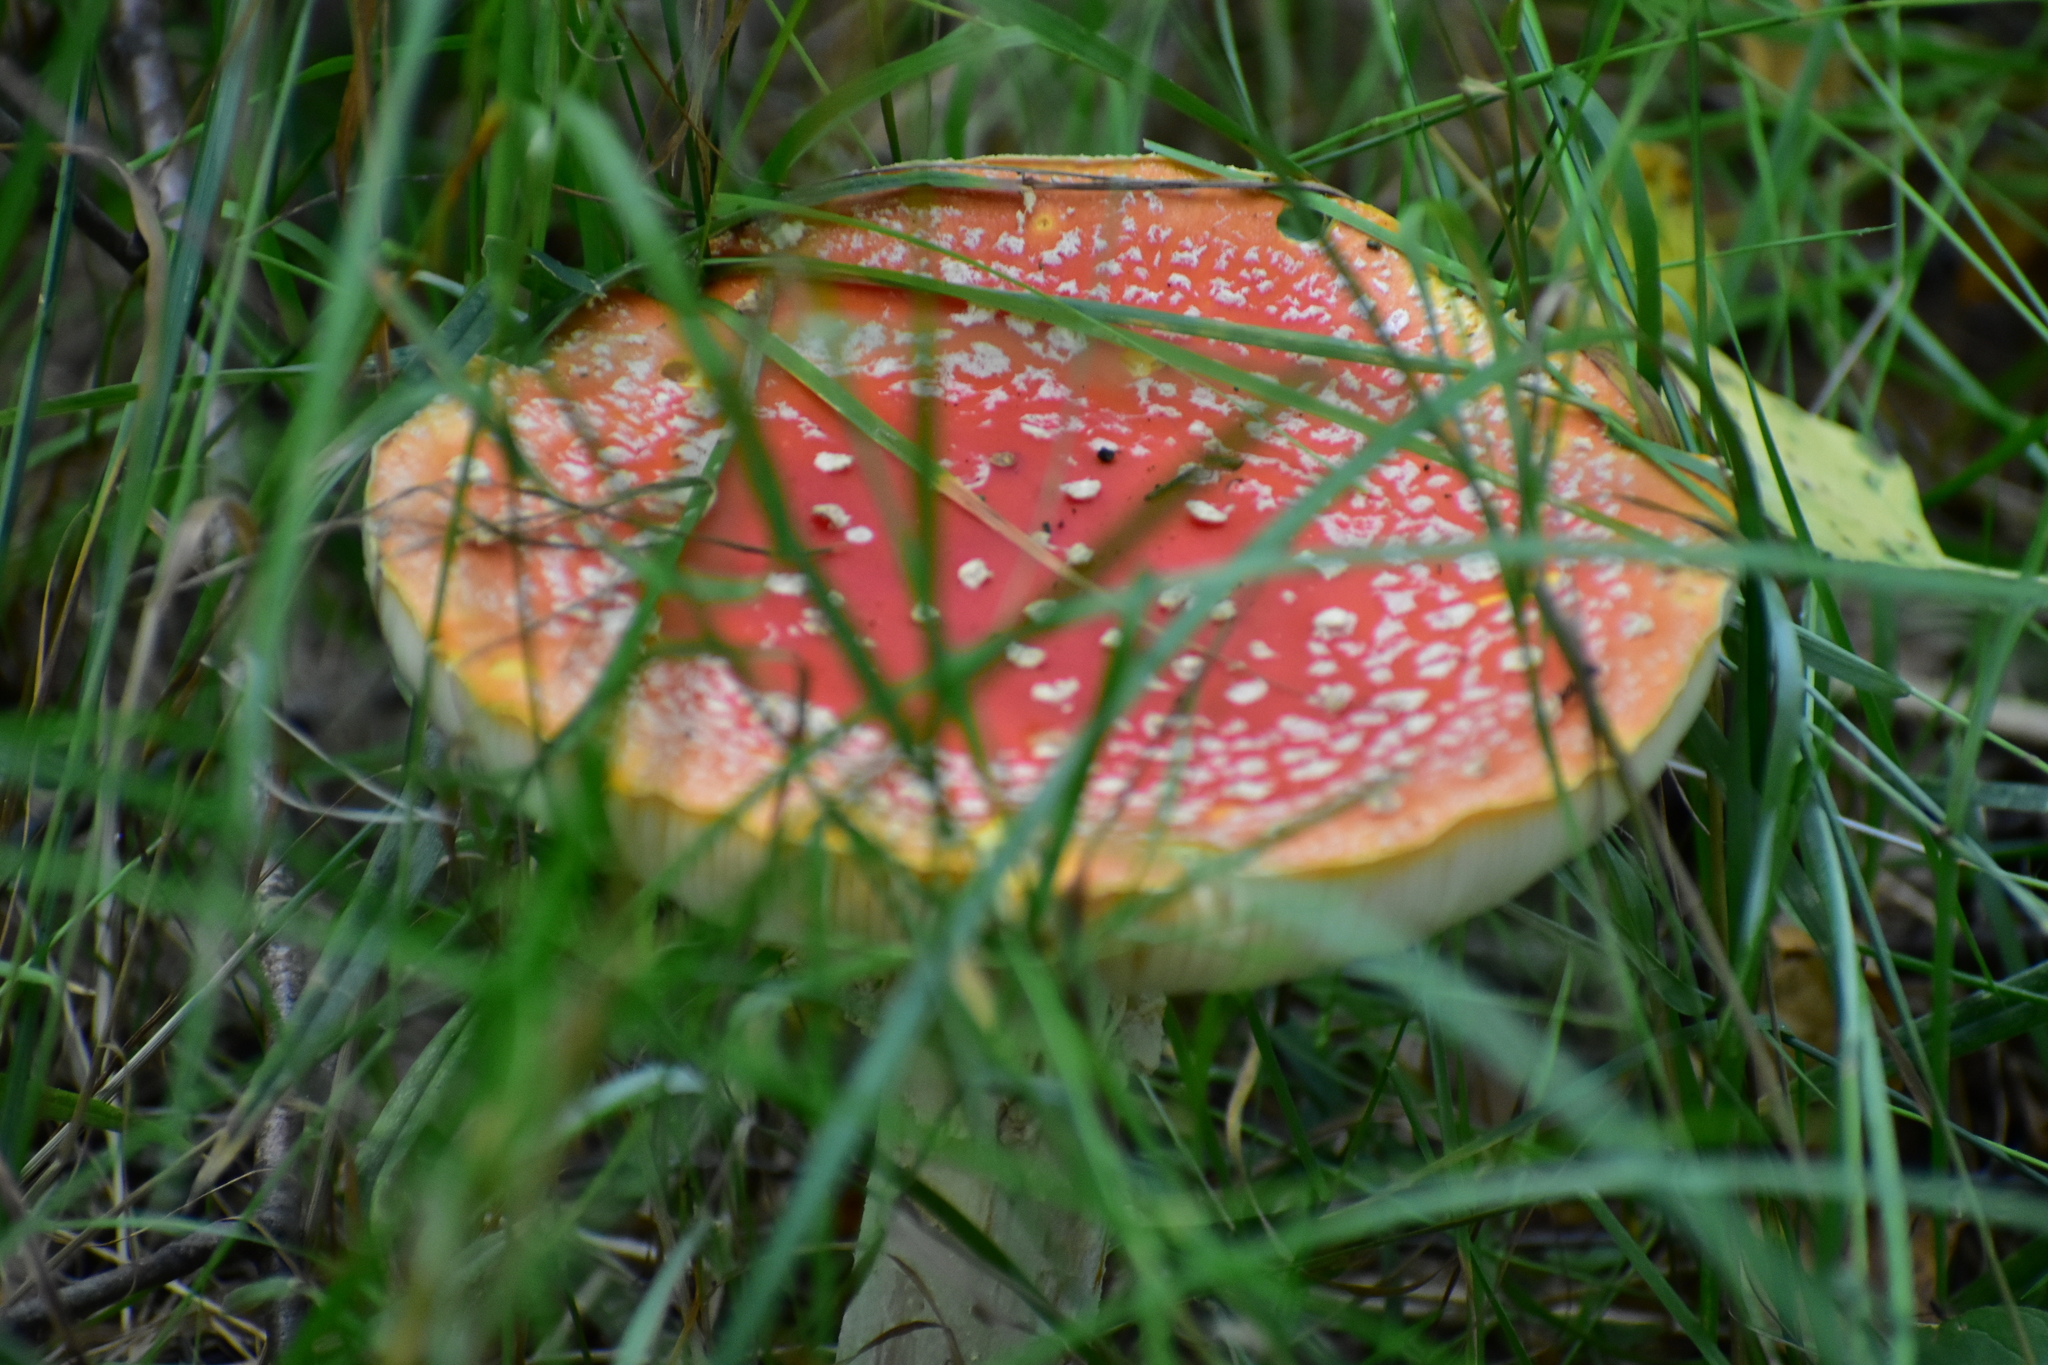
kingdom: Fungi
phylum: Basidiomycota
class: Agaricomycetes
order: Agaricales
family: Amanitaceae
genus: Amanita
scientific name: Amanita muscaria
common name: Fly agaric
